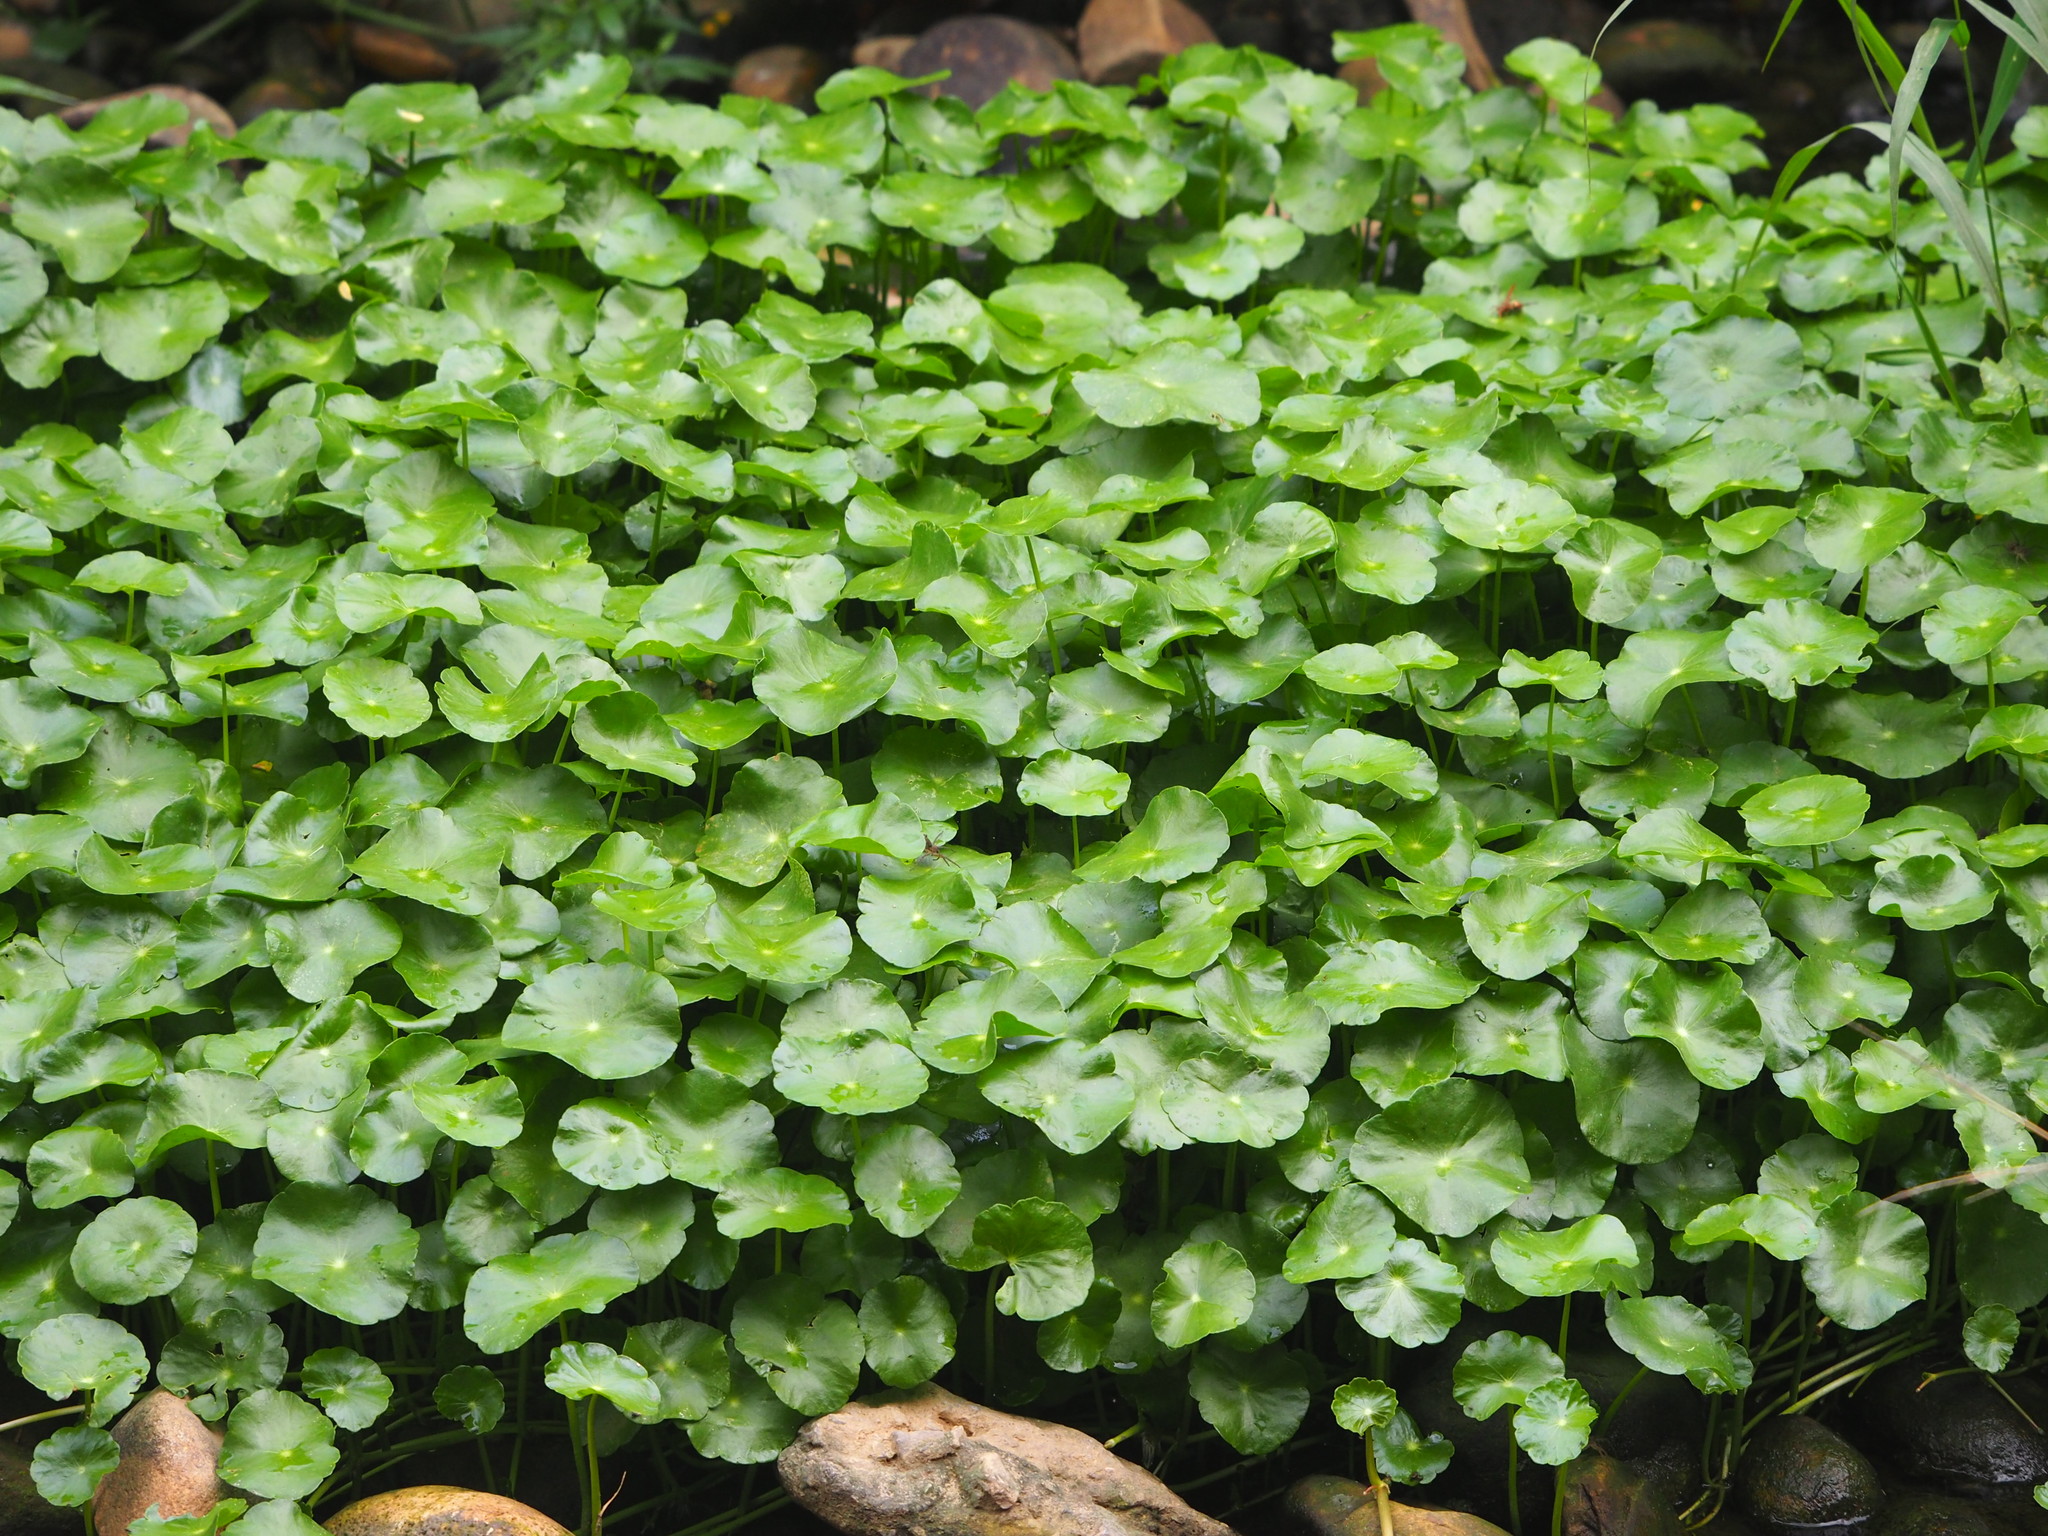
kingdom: Plantae
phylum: Tracheophyta
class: Magnoliopsida
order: Apiales
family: Araliaceae
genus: Hydrocotyle
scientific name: Hydrocotyle verticillata
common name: Whorled marshpennywort
